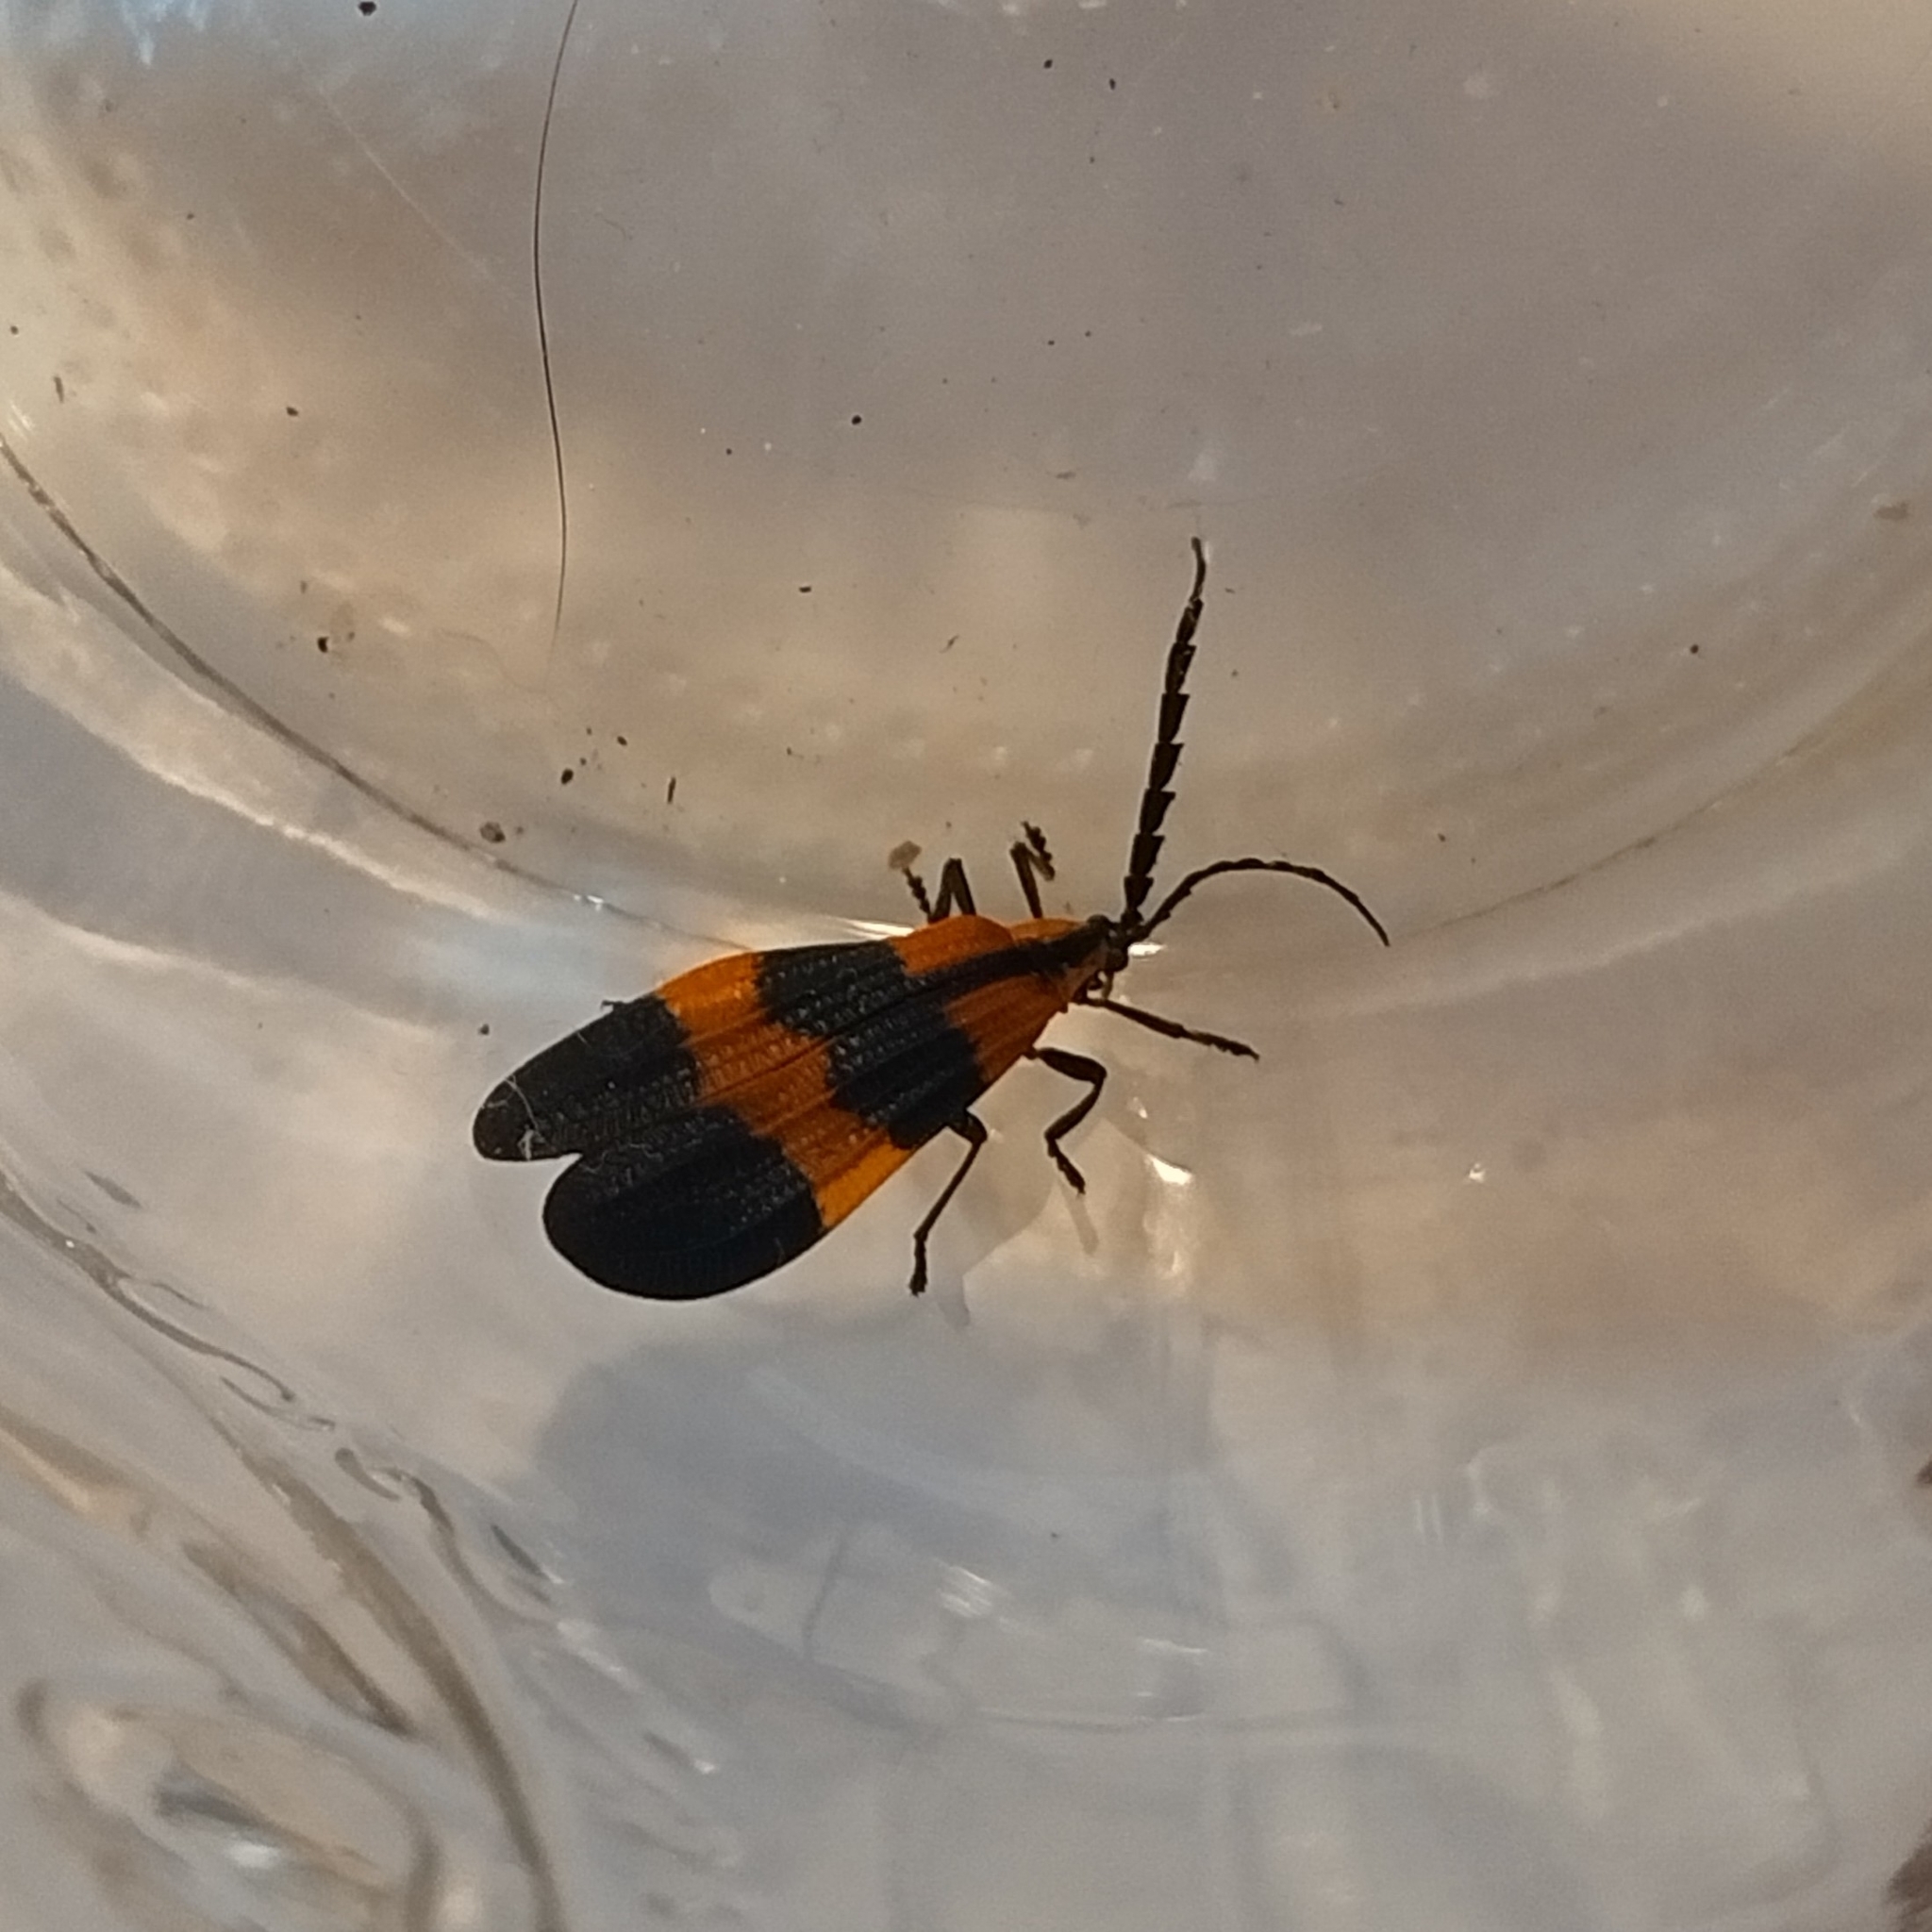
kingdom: Animalia
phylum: Arthropoda
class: Insecta
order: Coleoptera
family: Lycidae
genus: Calopteron
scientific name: Calopteron reticulatum
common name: Banded net-winged beetle
